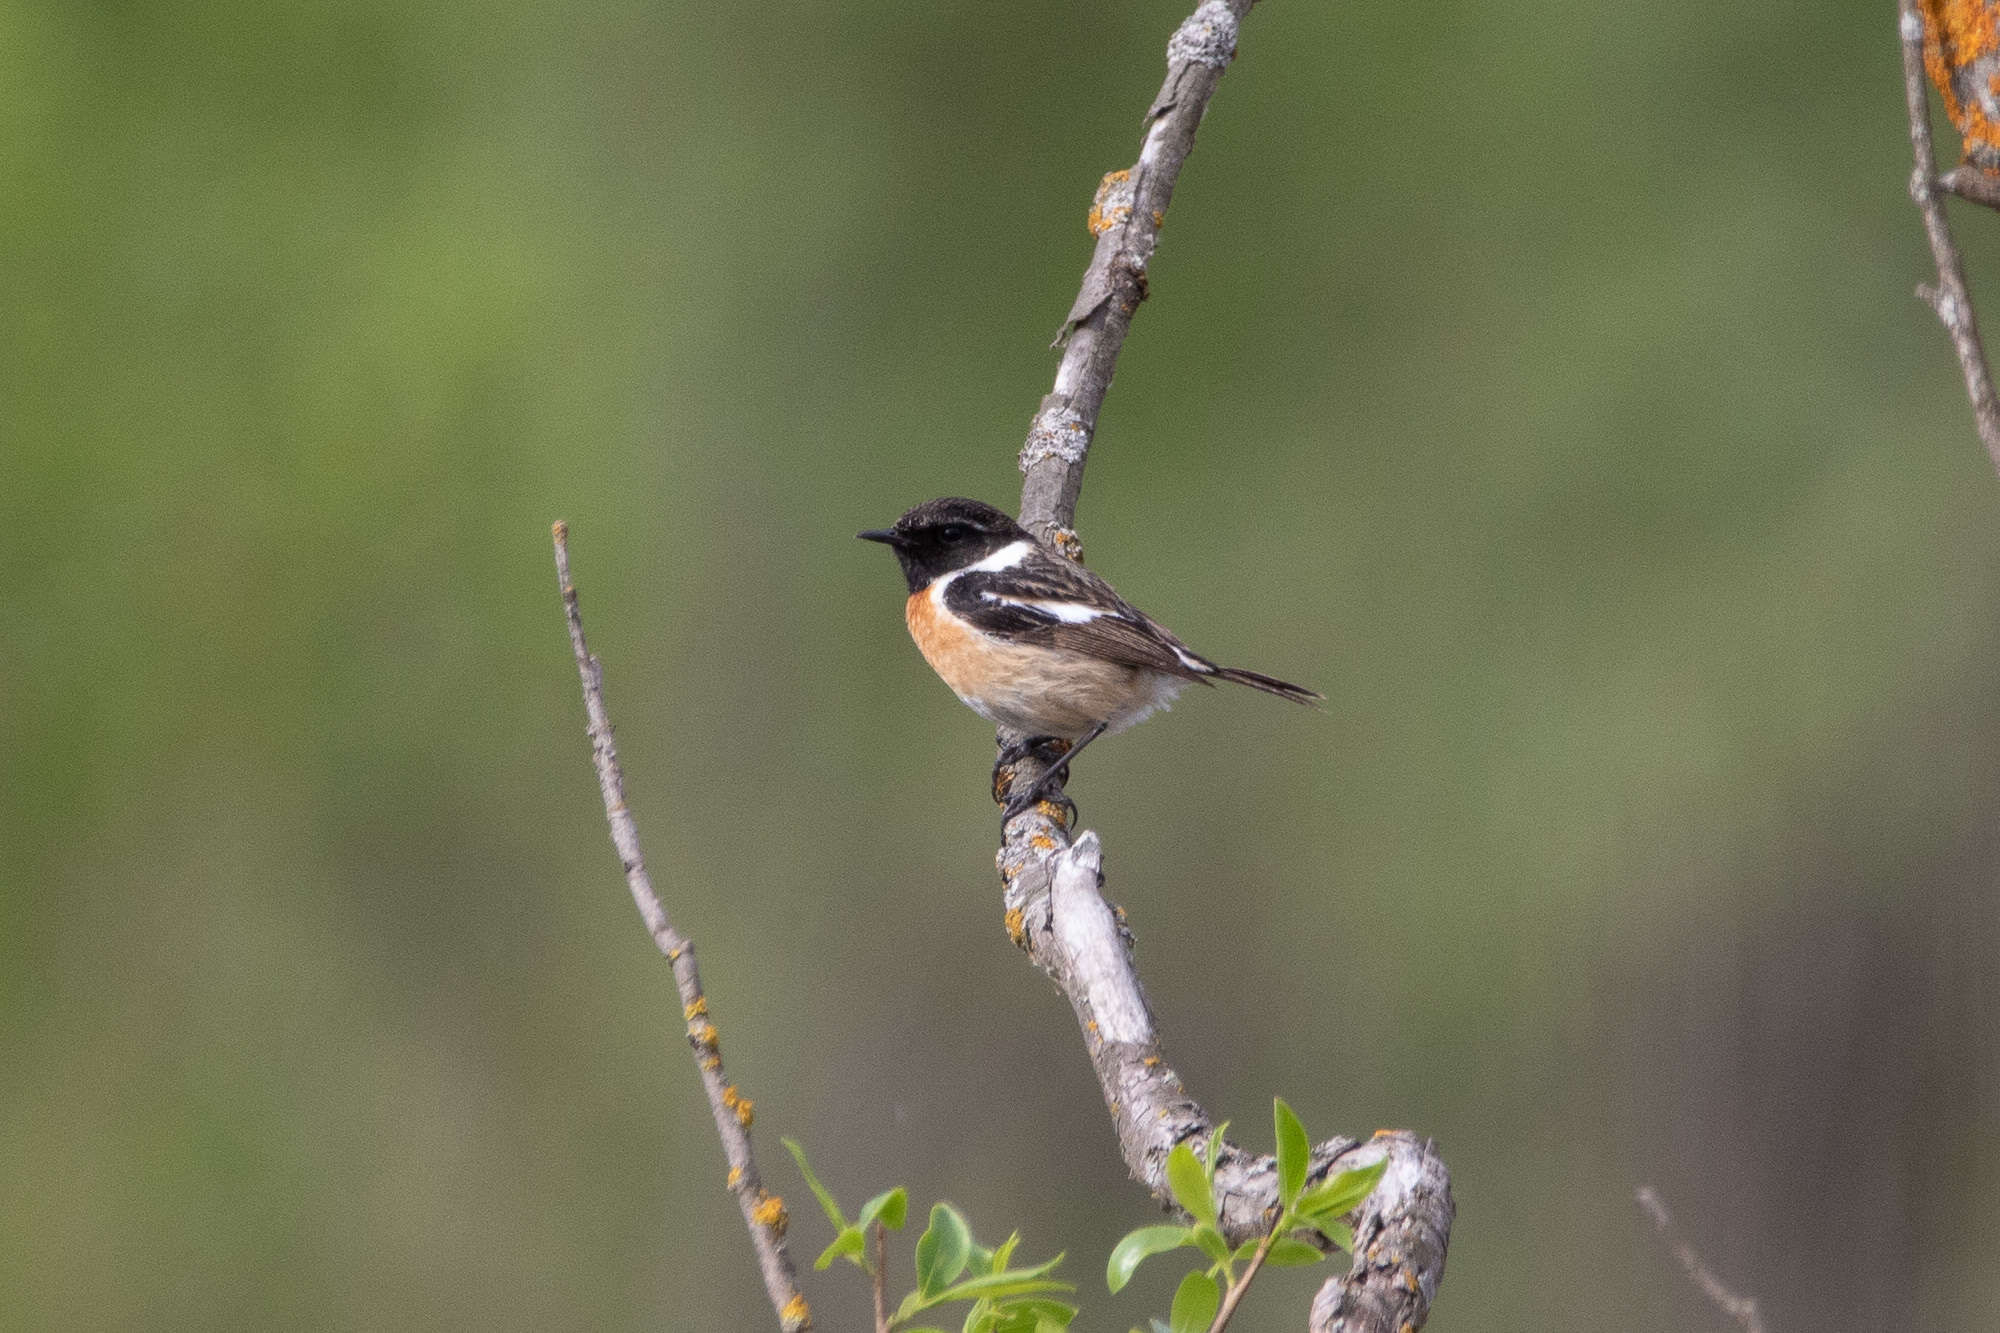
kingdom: Animalia
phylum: Chordata
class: Aves
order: Passeriformes
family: Muscicapidae
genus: Saxicola
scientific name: Saxicola rubicola
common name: European stonechat
